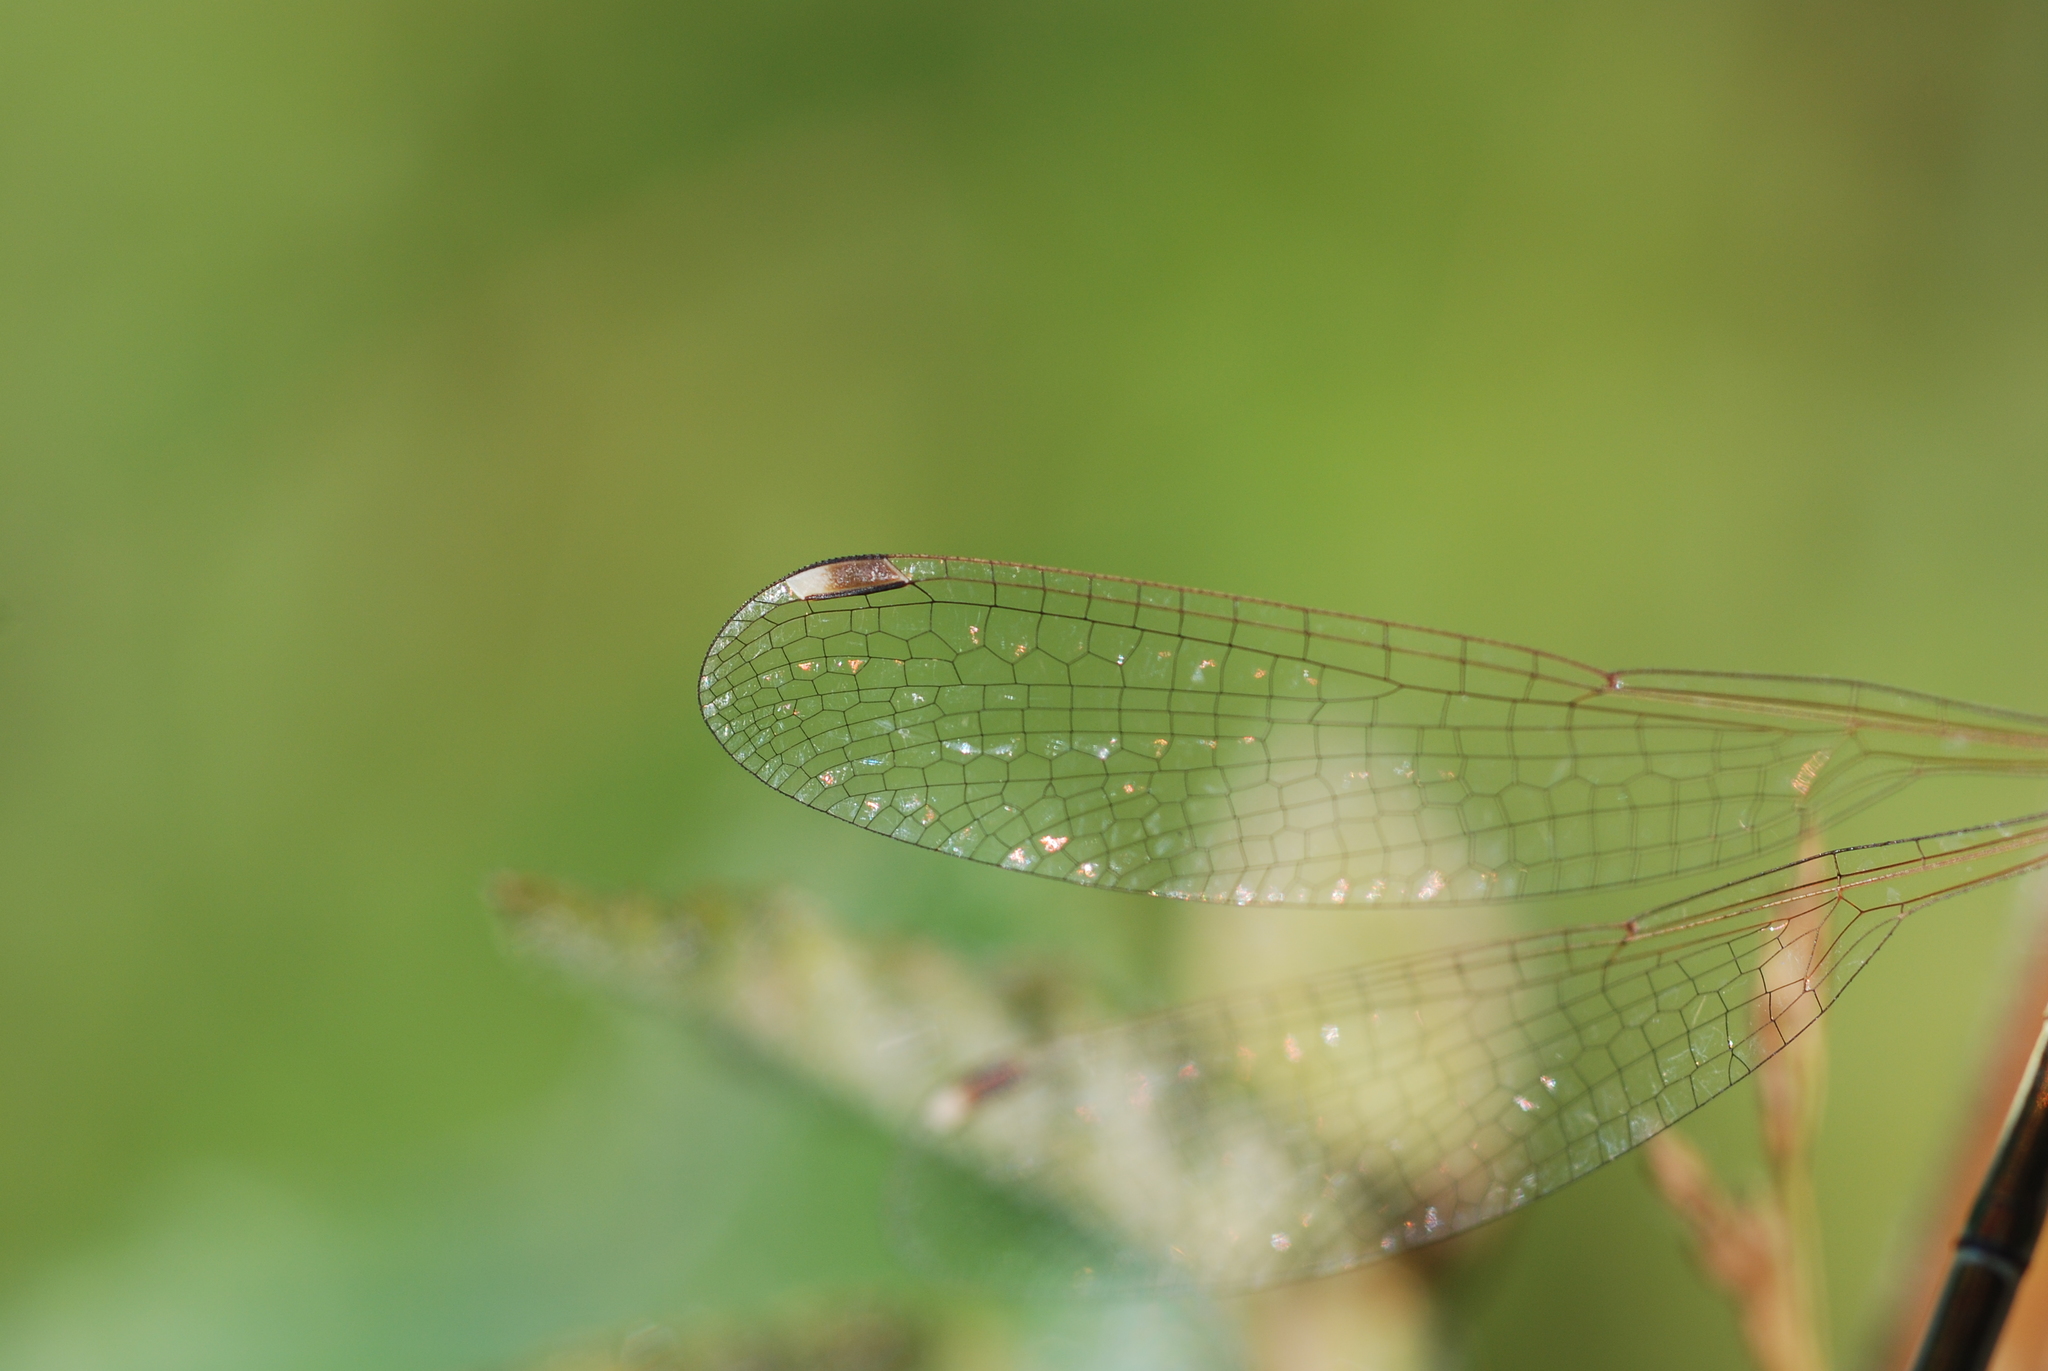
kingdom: Animalia
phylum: Arthropoda
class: Insecta
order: Odonata
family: Lestidae
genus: Lestes
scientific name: Lestes barbarus
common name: Migrant spreadwing
